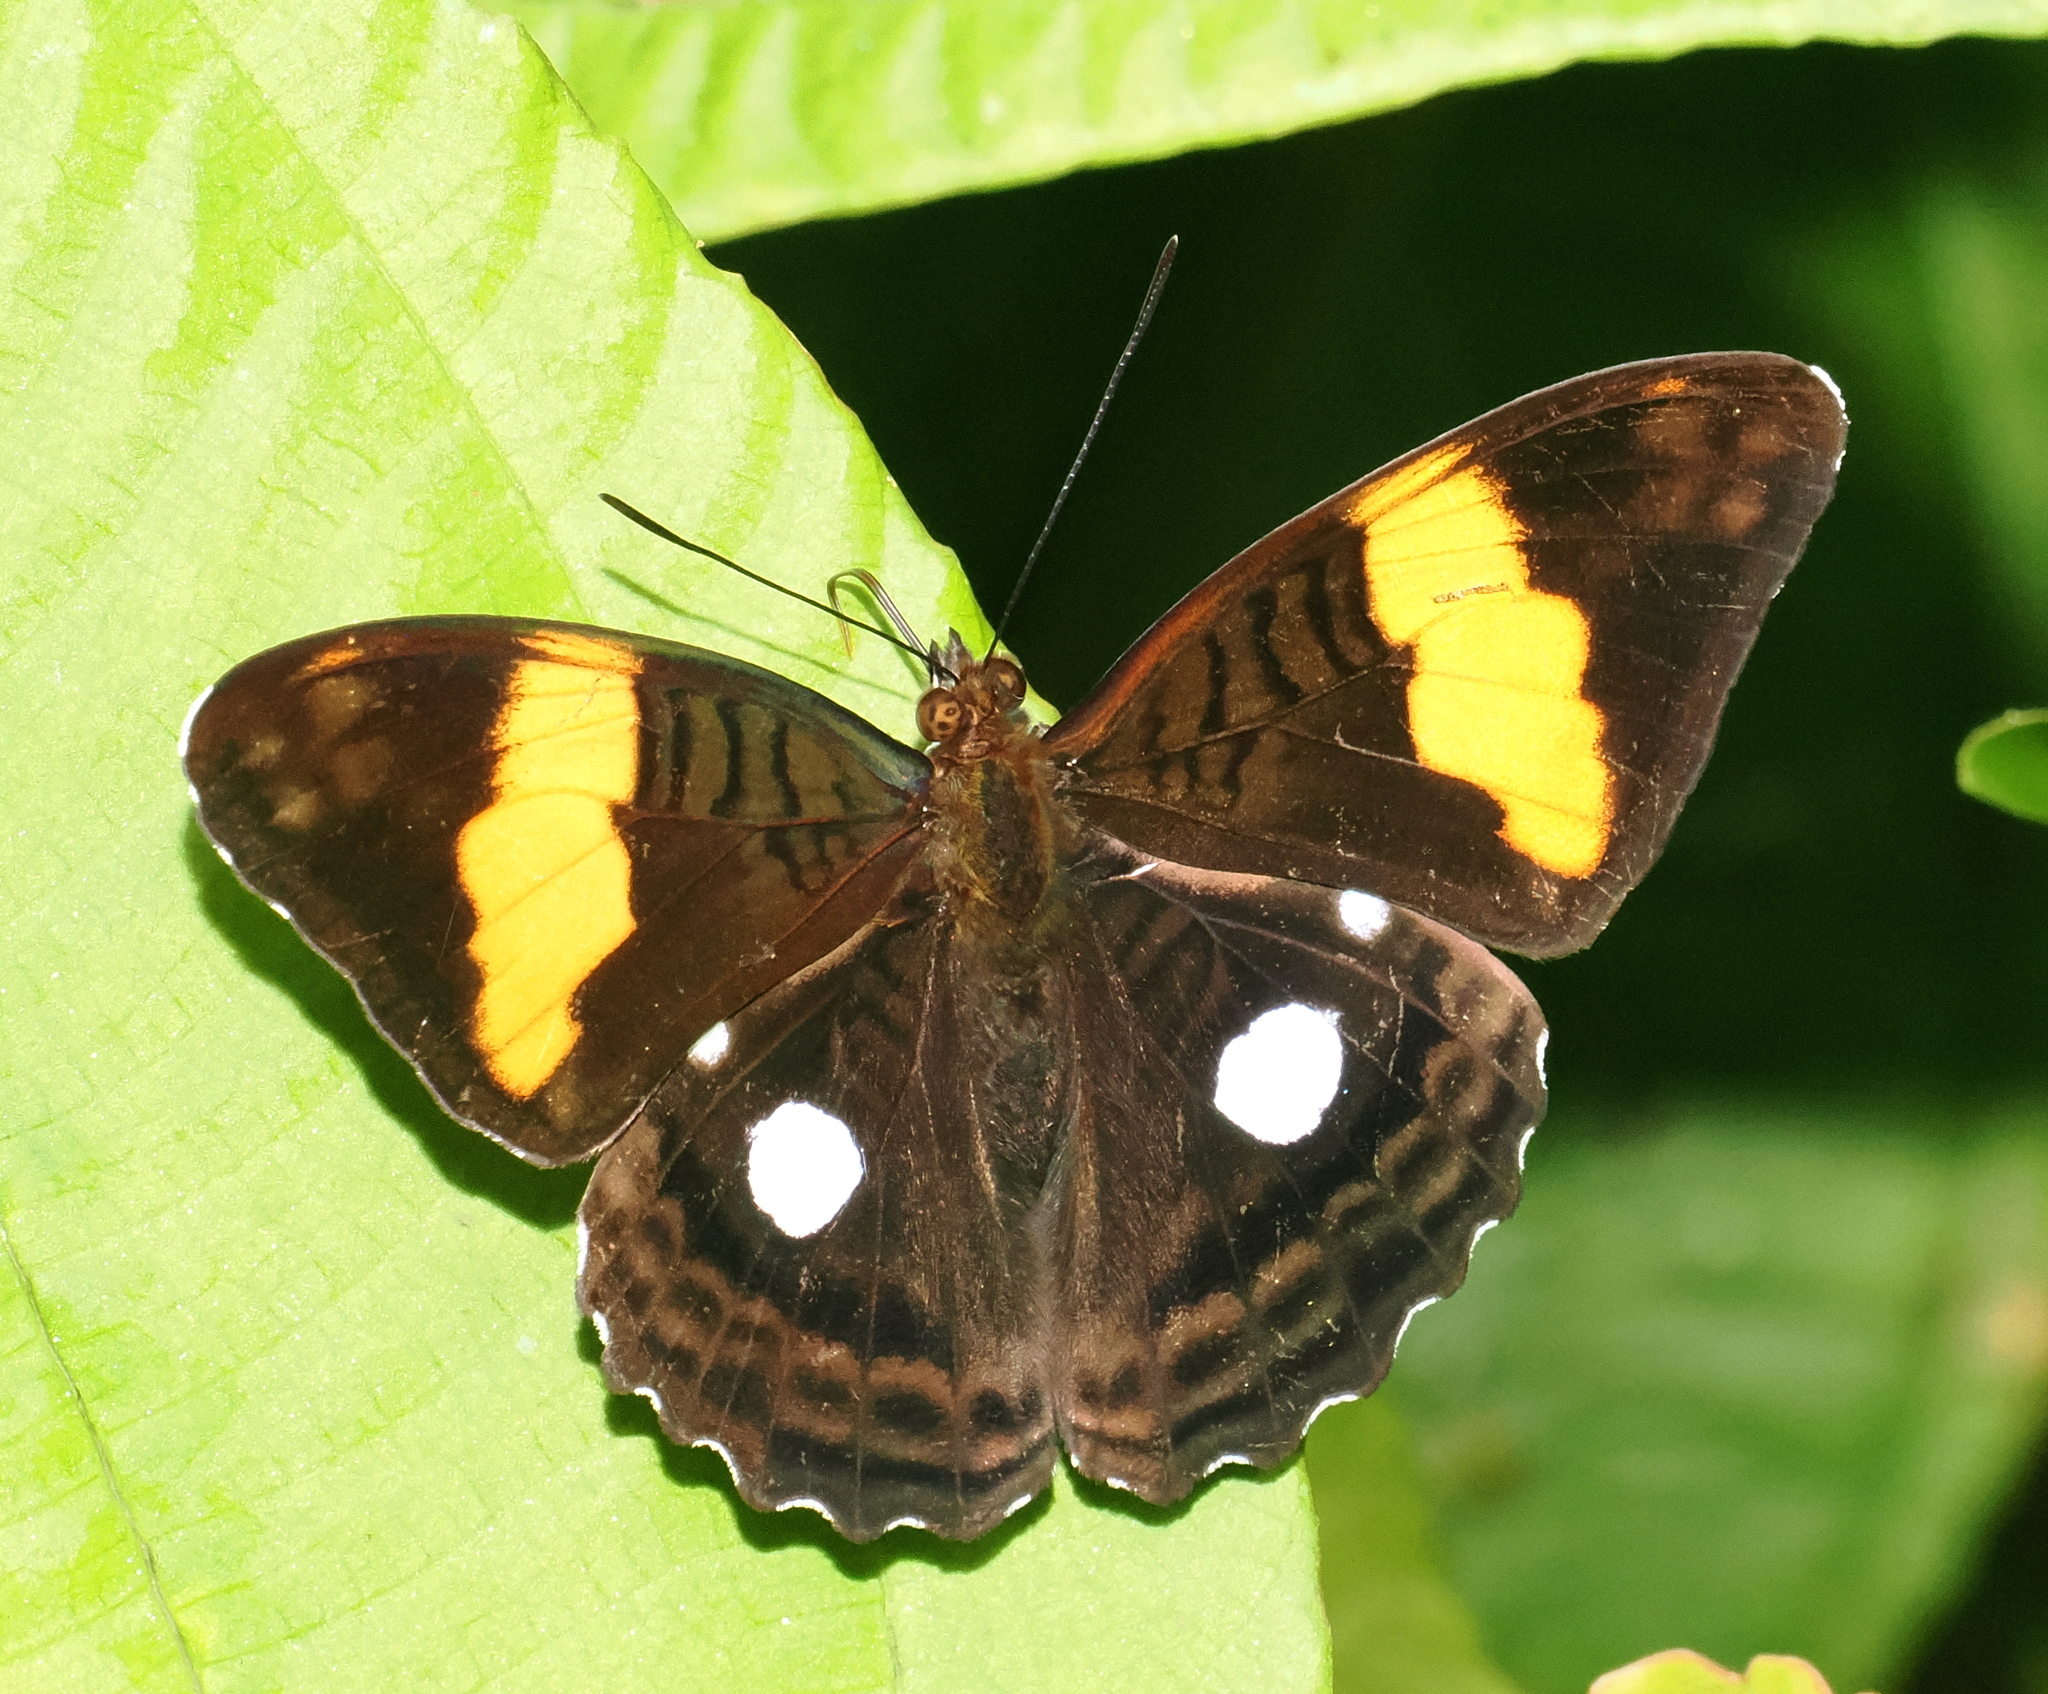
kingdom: Animalia
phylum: Arthropoda
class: Insecta
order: Lepidoptera
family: Nymphalidae
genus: Limenitis
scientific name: Limenitis leucophthalma
